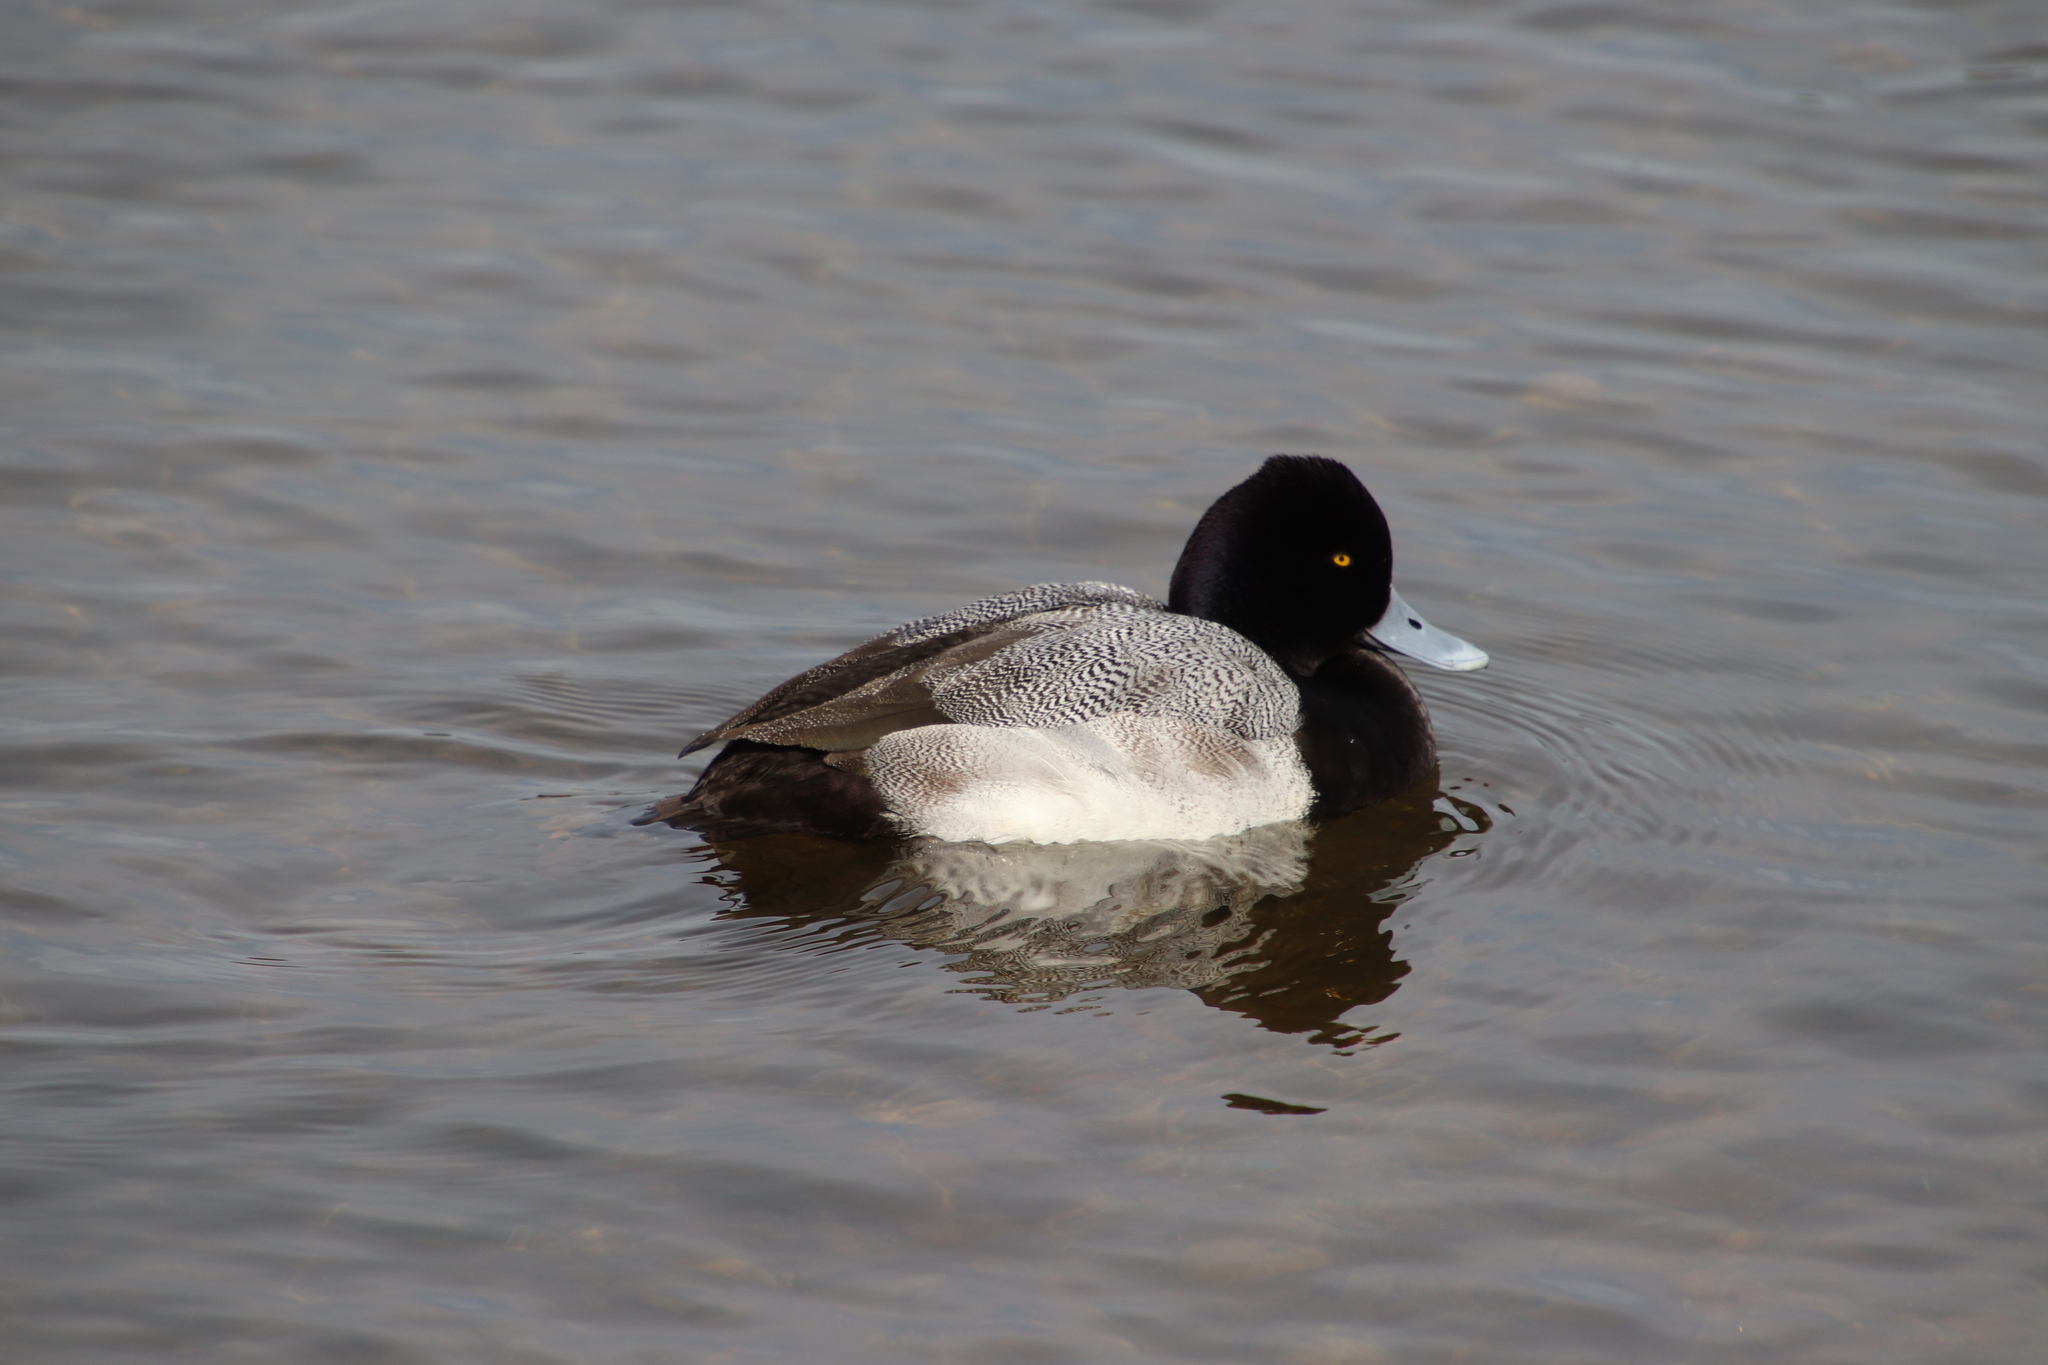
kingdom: Animalia
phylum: Chordata
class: Aves
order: Anseriformes
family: Anatidae
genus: Aythya
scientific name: Aythya affinis
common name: Lesser scaup
